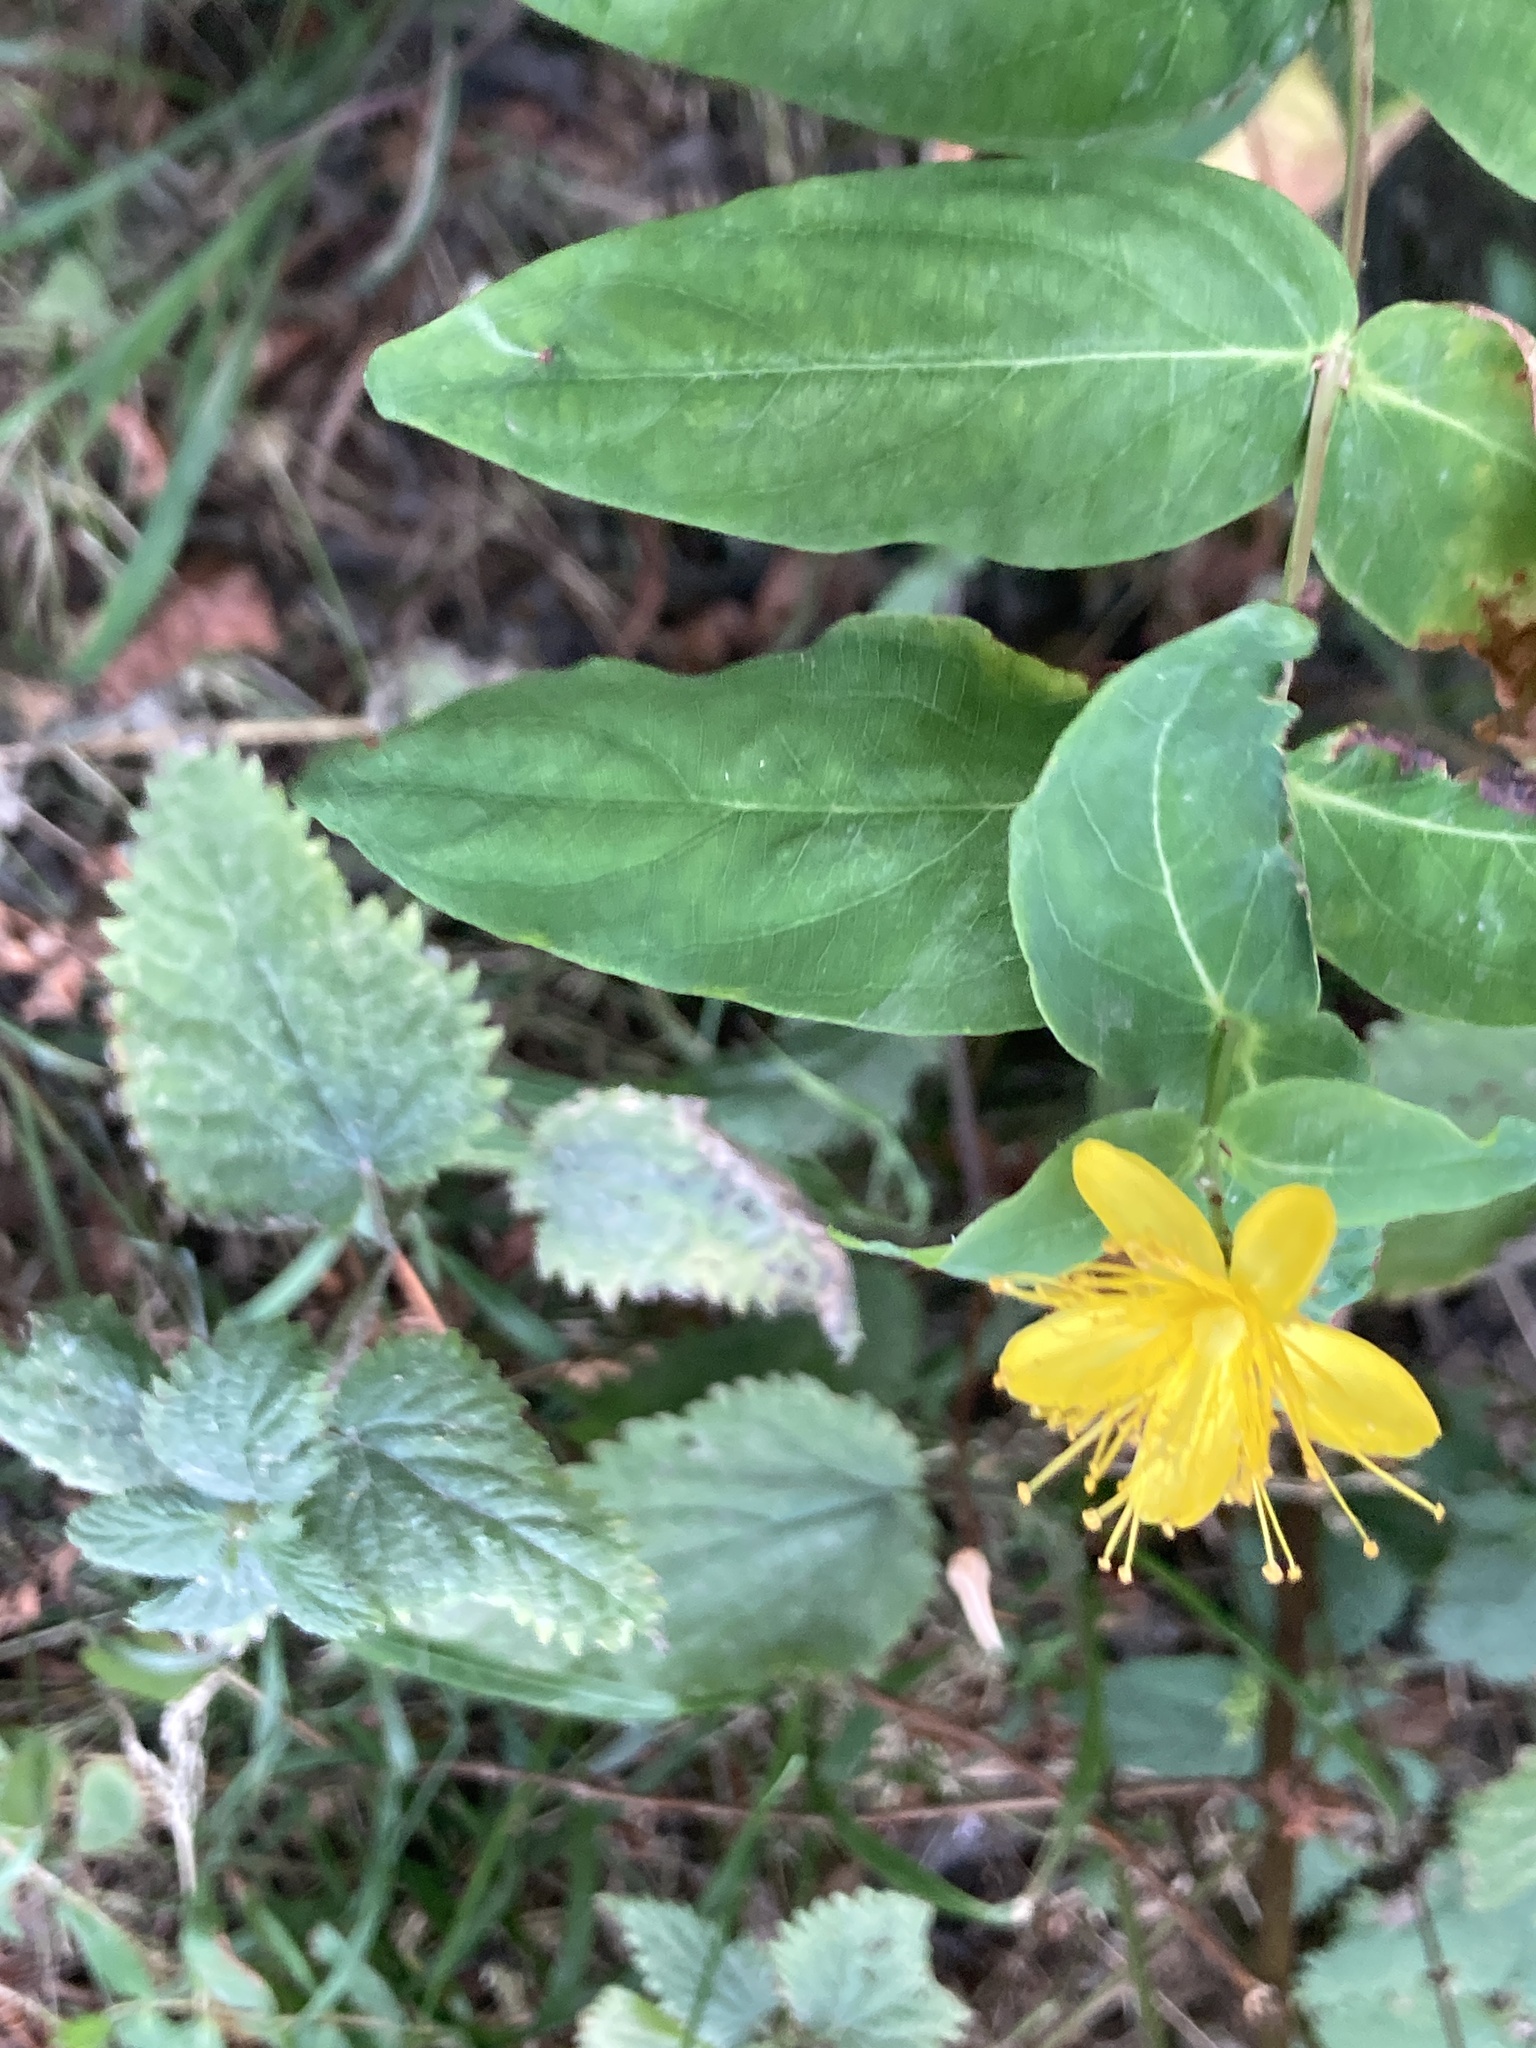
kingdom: Plantae
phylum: Tracheophyta
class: Magnoliopsida
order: Malpighiales
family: Hypericaceae
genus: Hypericum
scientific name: Hypericum androsaemum
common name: Sweet-amber
